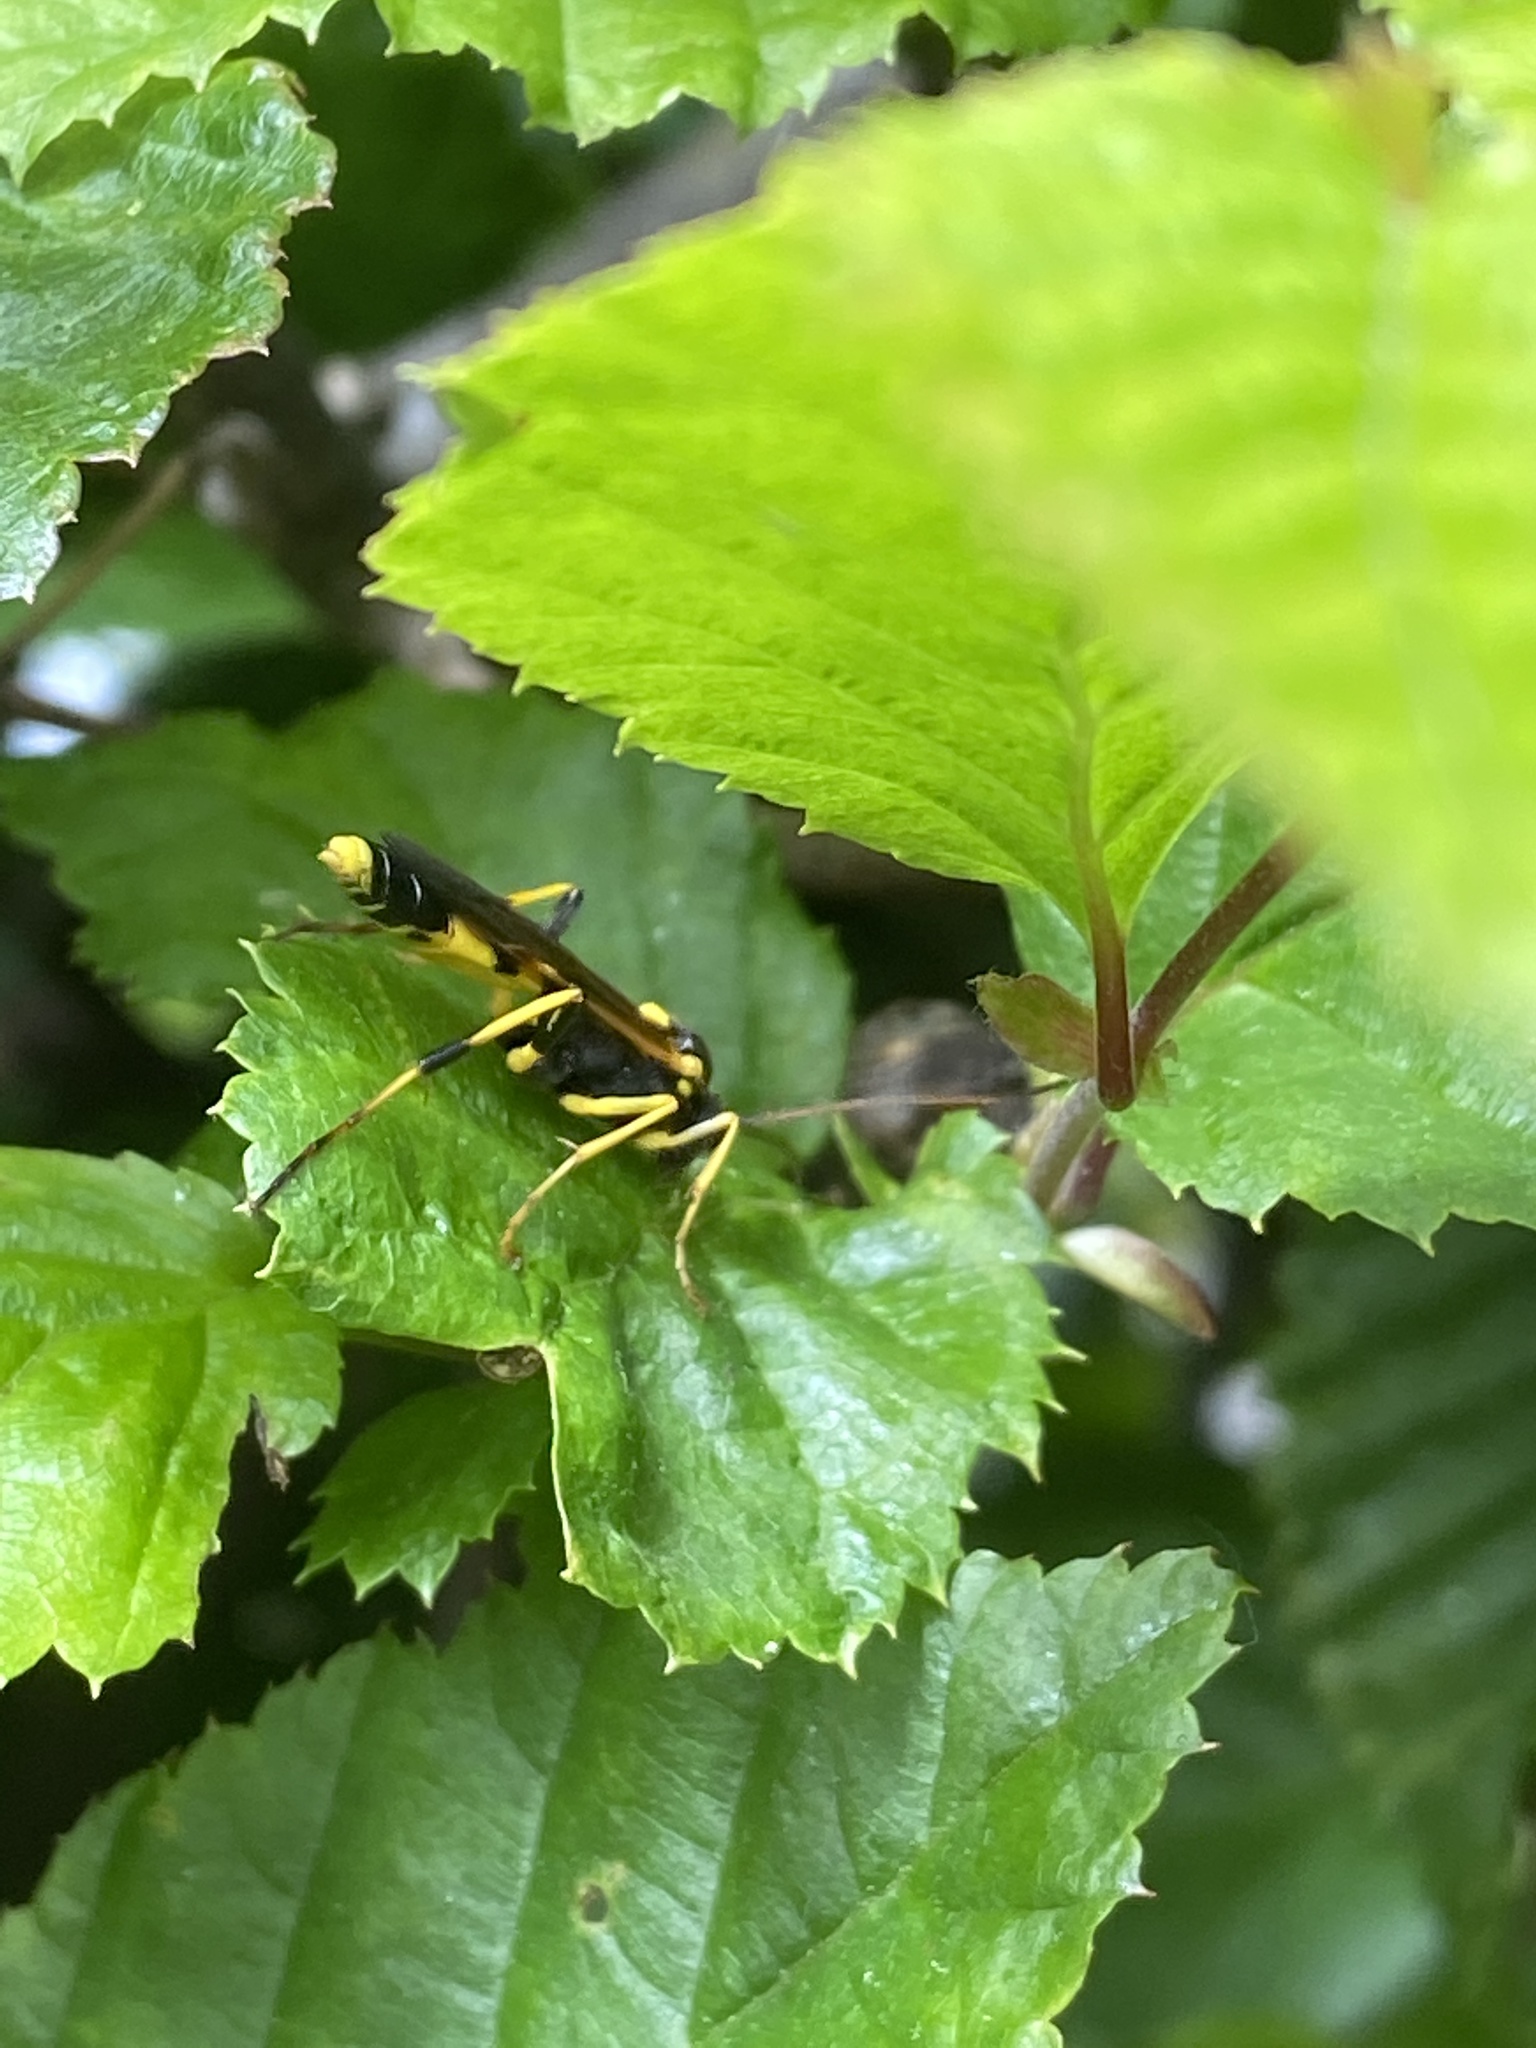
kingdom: Animalia
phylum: Arthropoda
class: Insecta
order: Hymenoptera
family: Ichneumonidae
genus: Amblyteles
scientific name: Amblyteles armatorius
